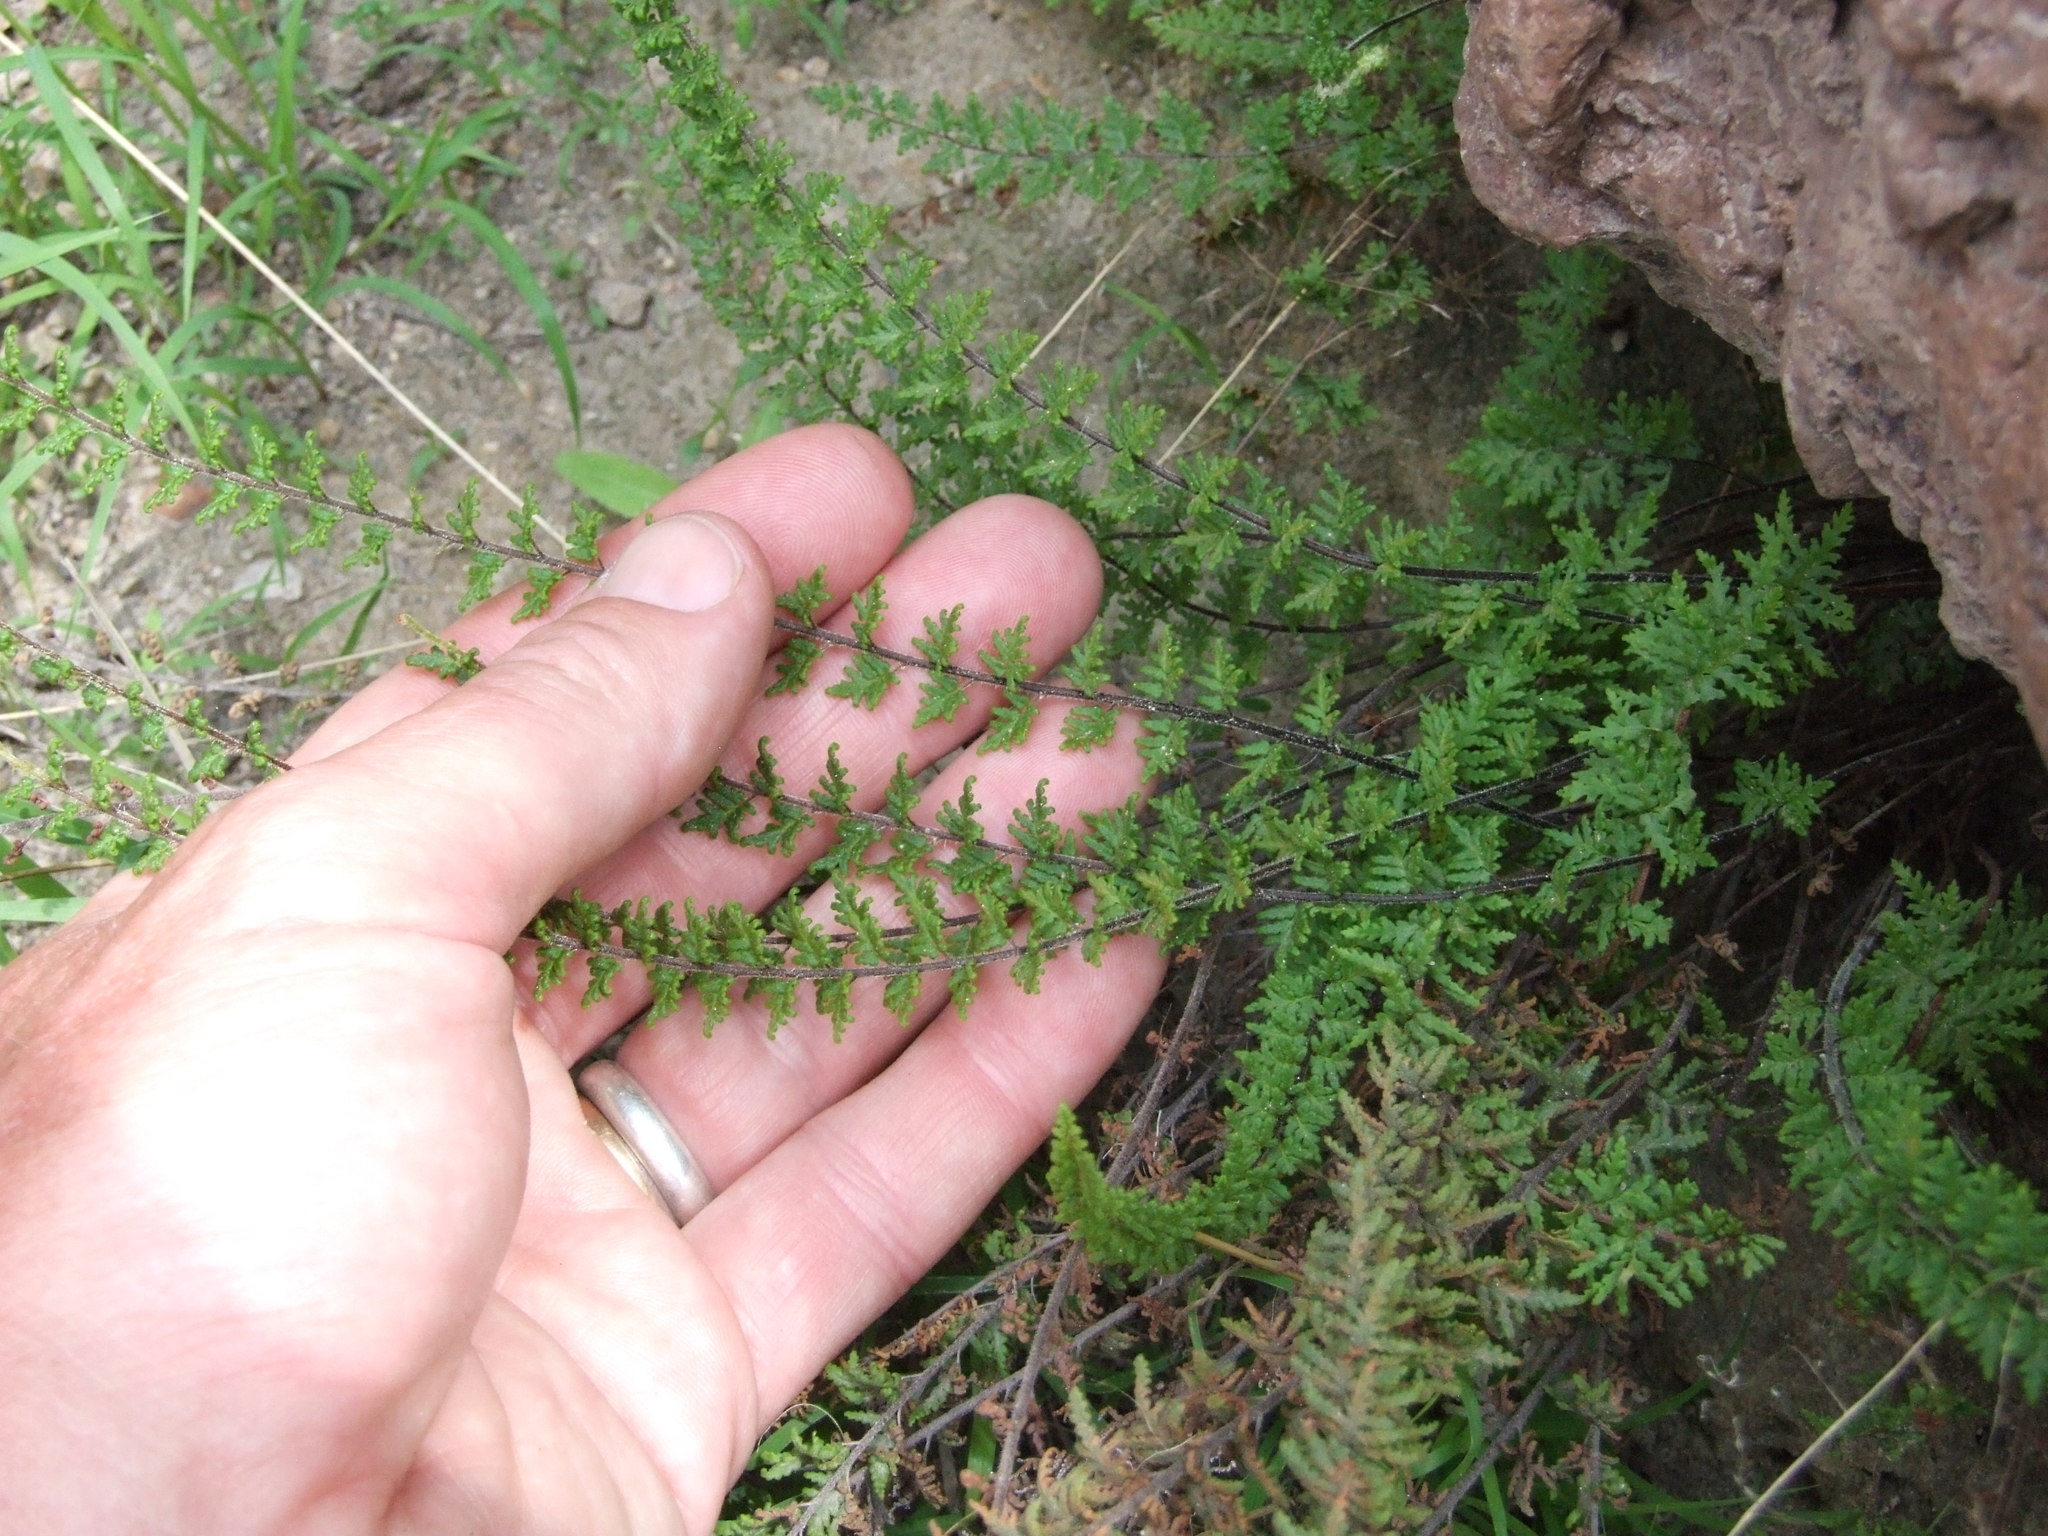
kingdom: Plantae
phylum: Tracheophyta
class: Polypodiopsida
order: Polypodiales
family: Pteridaceae
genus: Cheilanthes
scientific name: Cheilanthes pruinata
